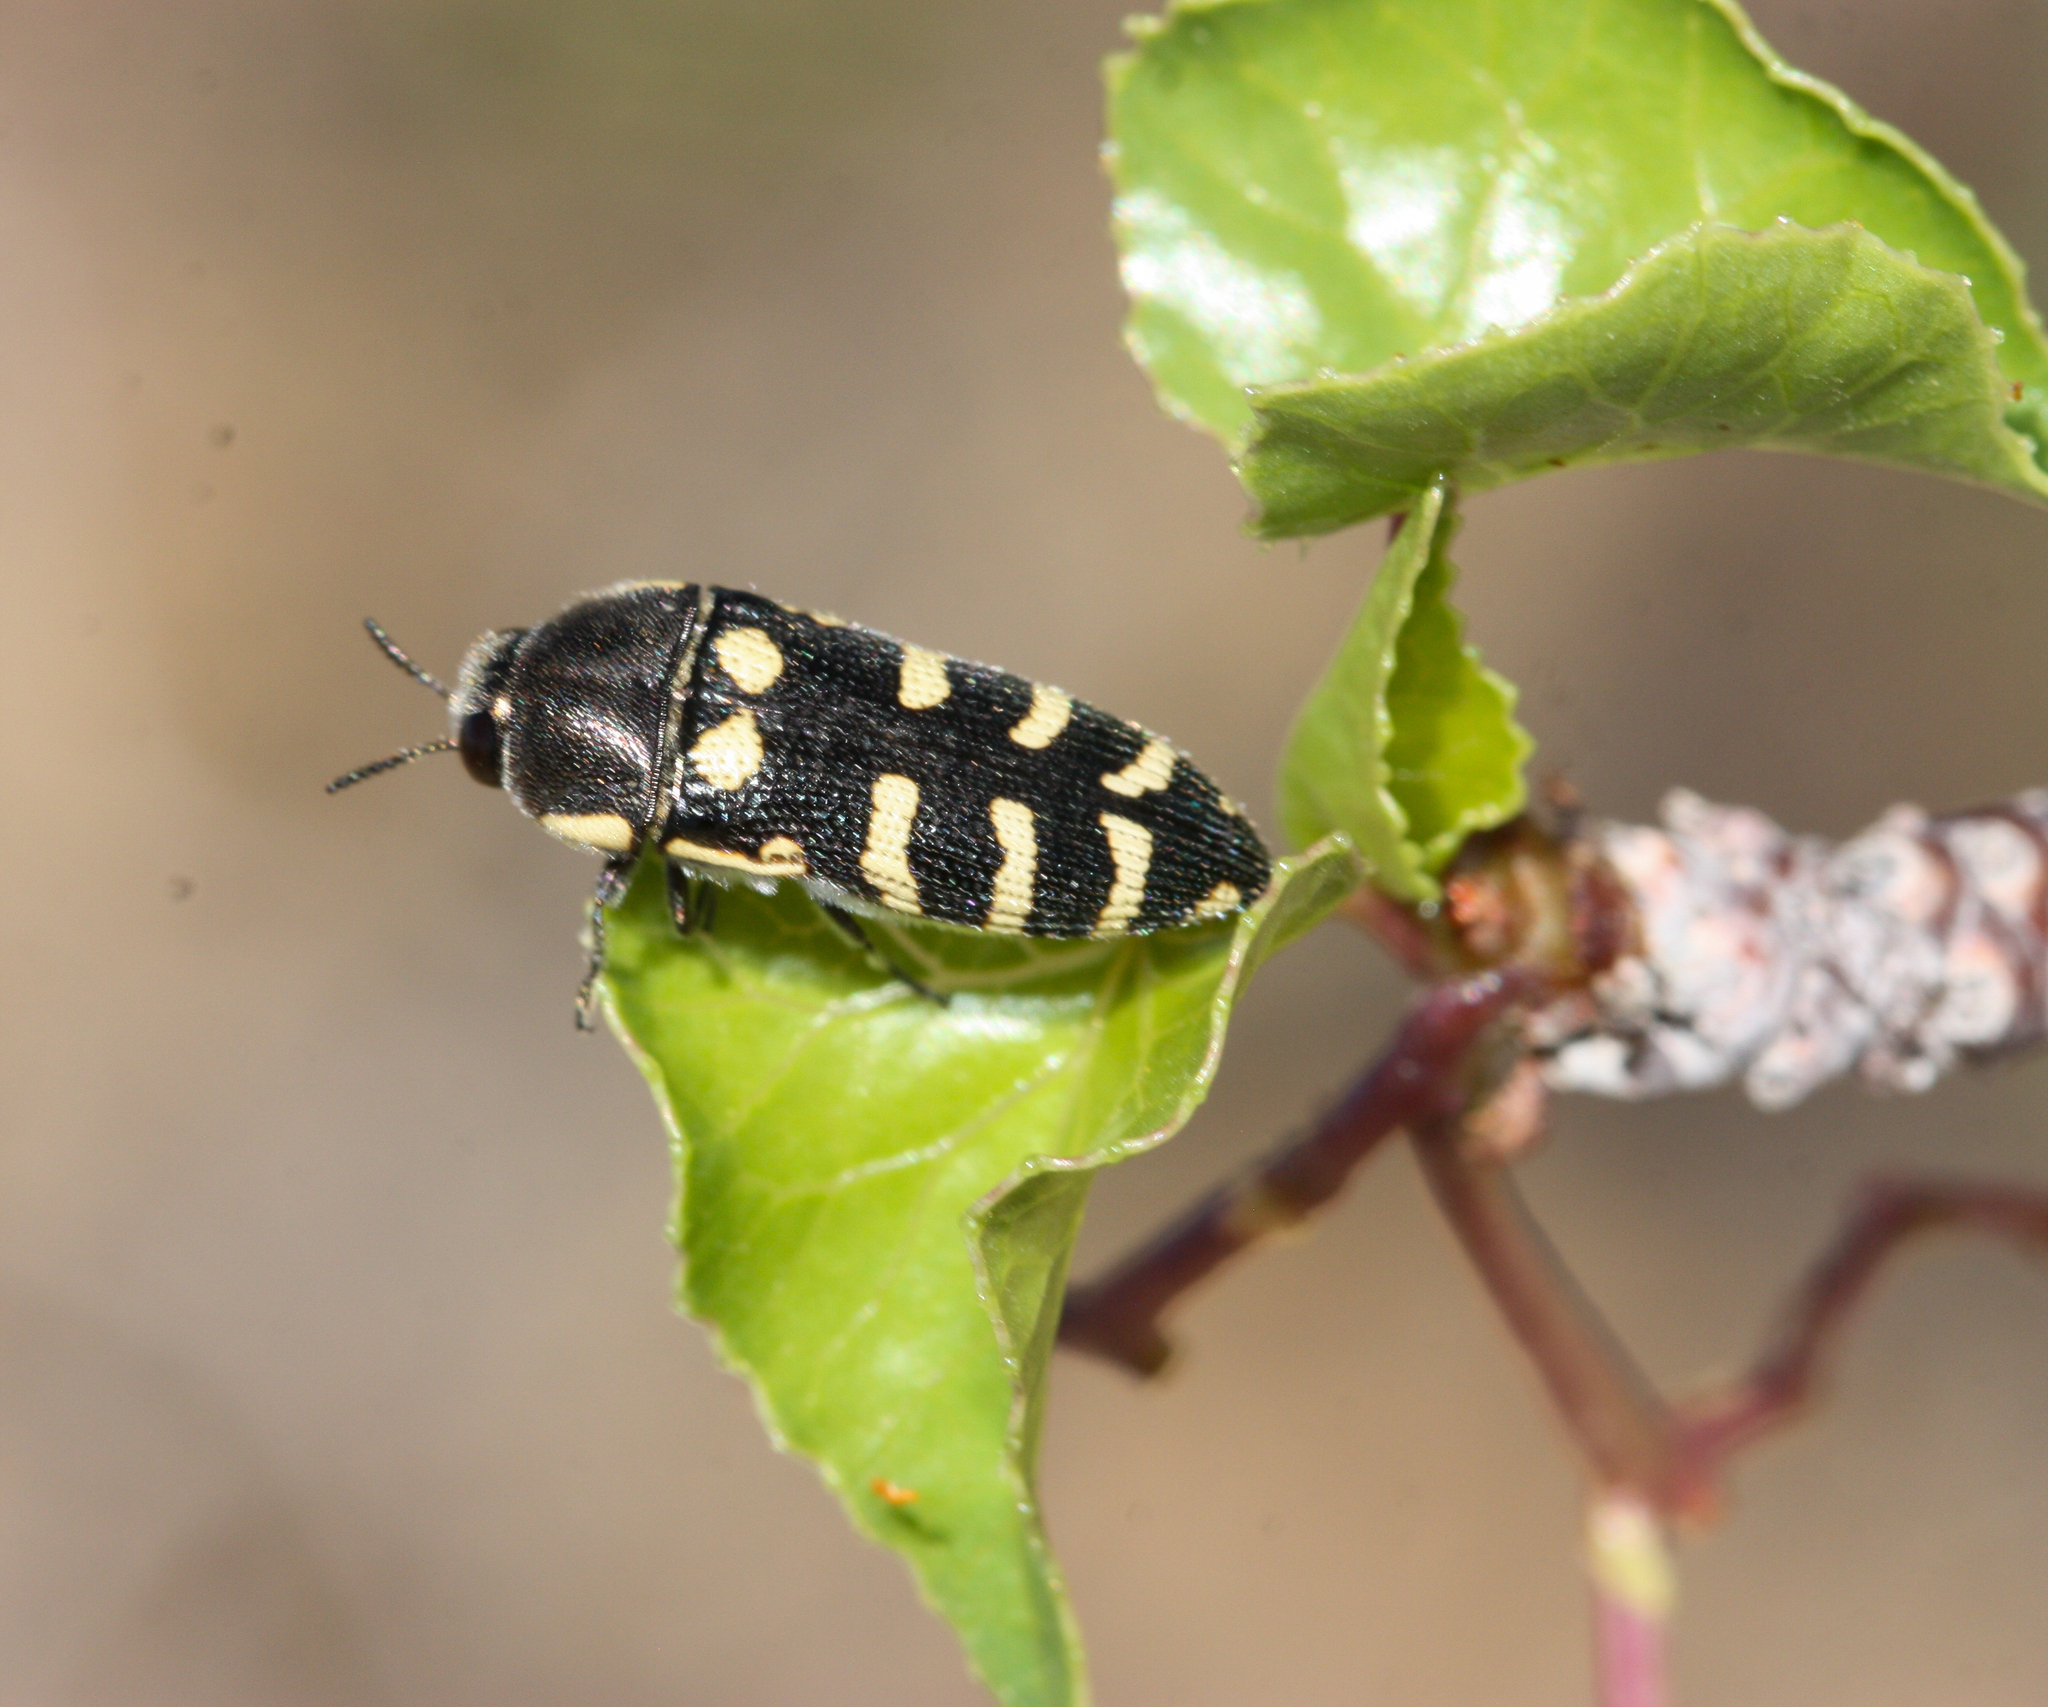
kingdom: Animalia
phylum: Arthropoda
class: Insecta
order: Coleoptera
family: Buprestidae
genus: Acmaeodera
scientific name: Acmaeodera alicia
